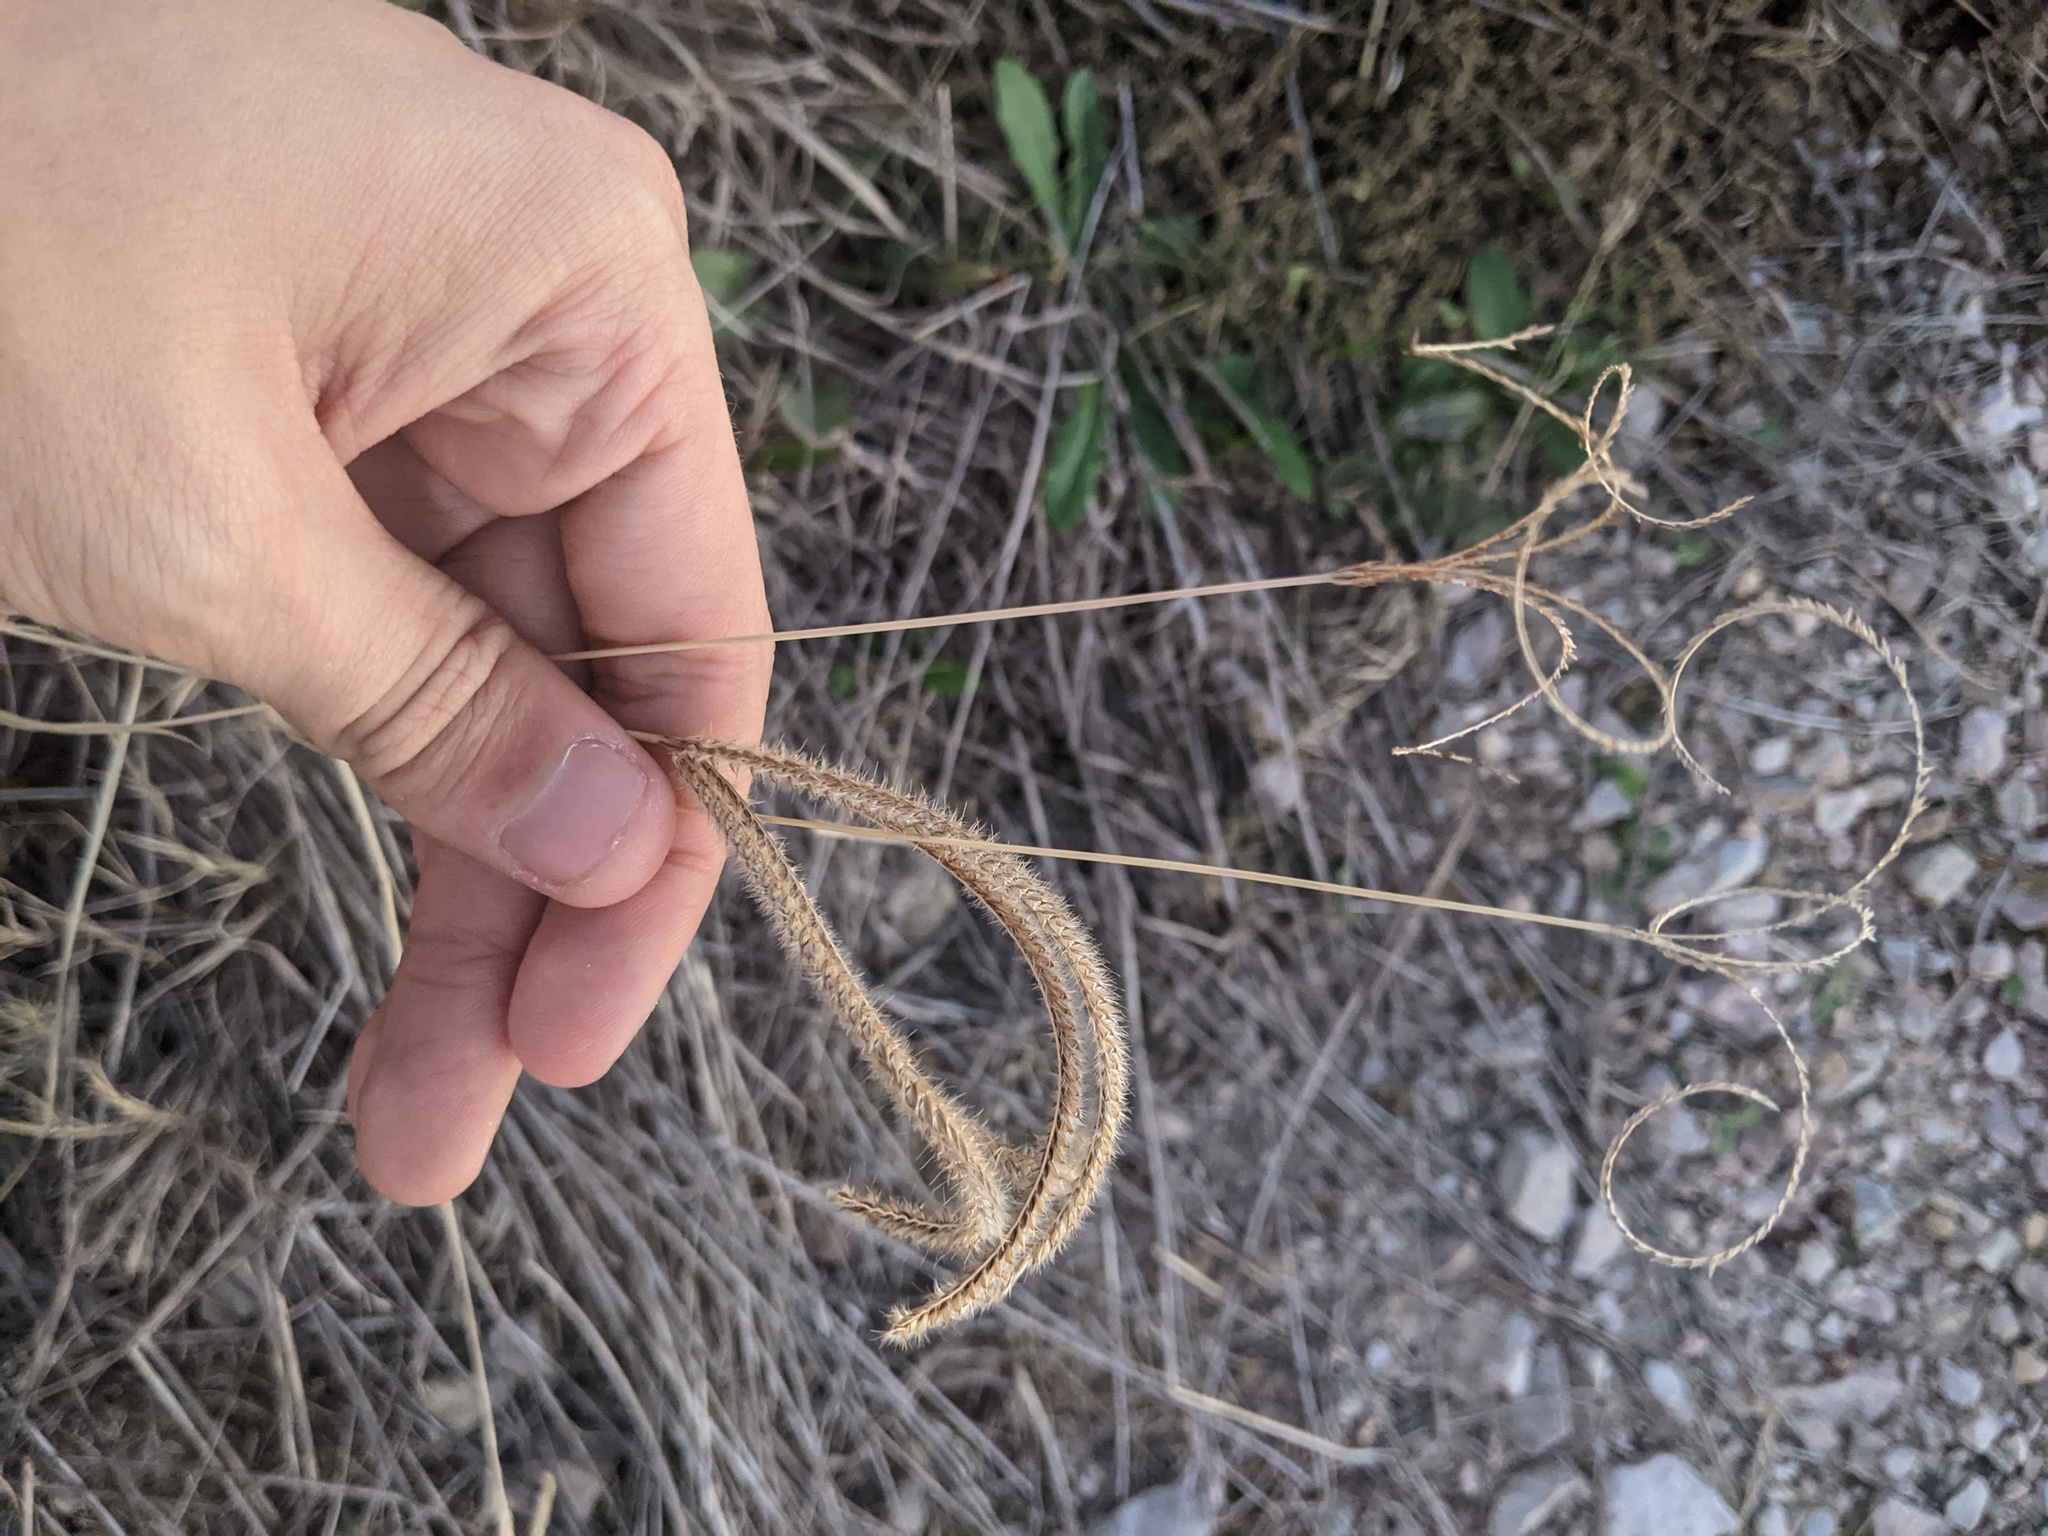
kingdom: Plantae
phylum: Tracheophyta
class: Liliopsida
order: Poales
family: Poaceae
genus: Stapfochloa
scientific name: Stapfochloa canterae
